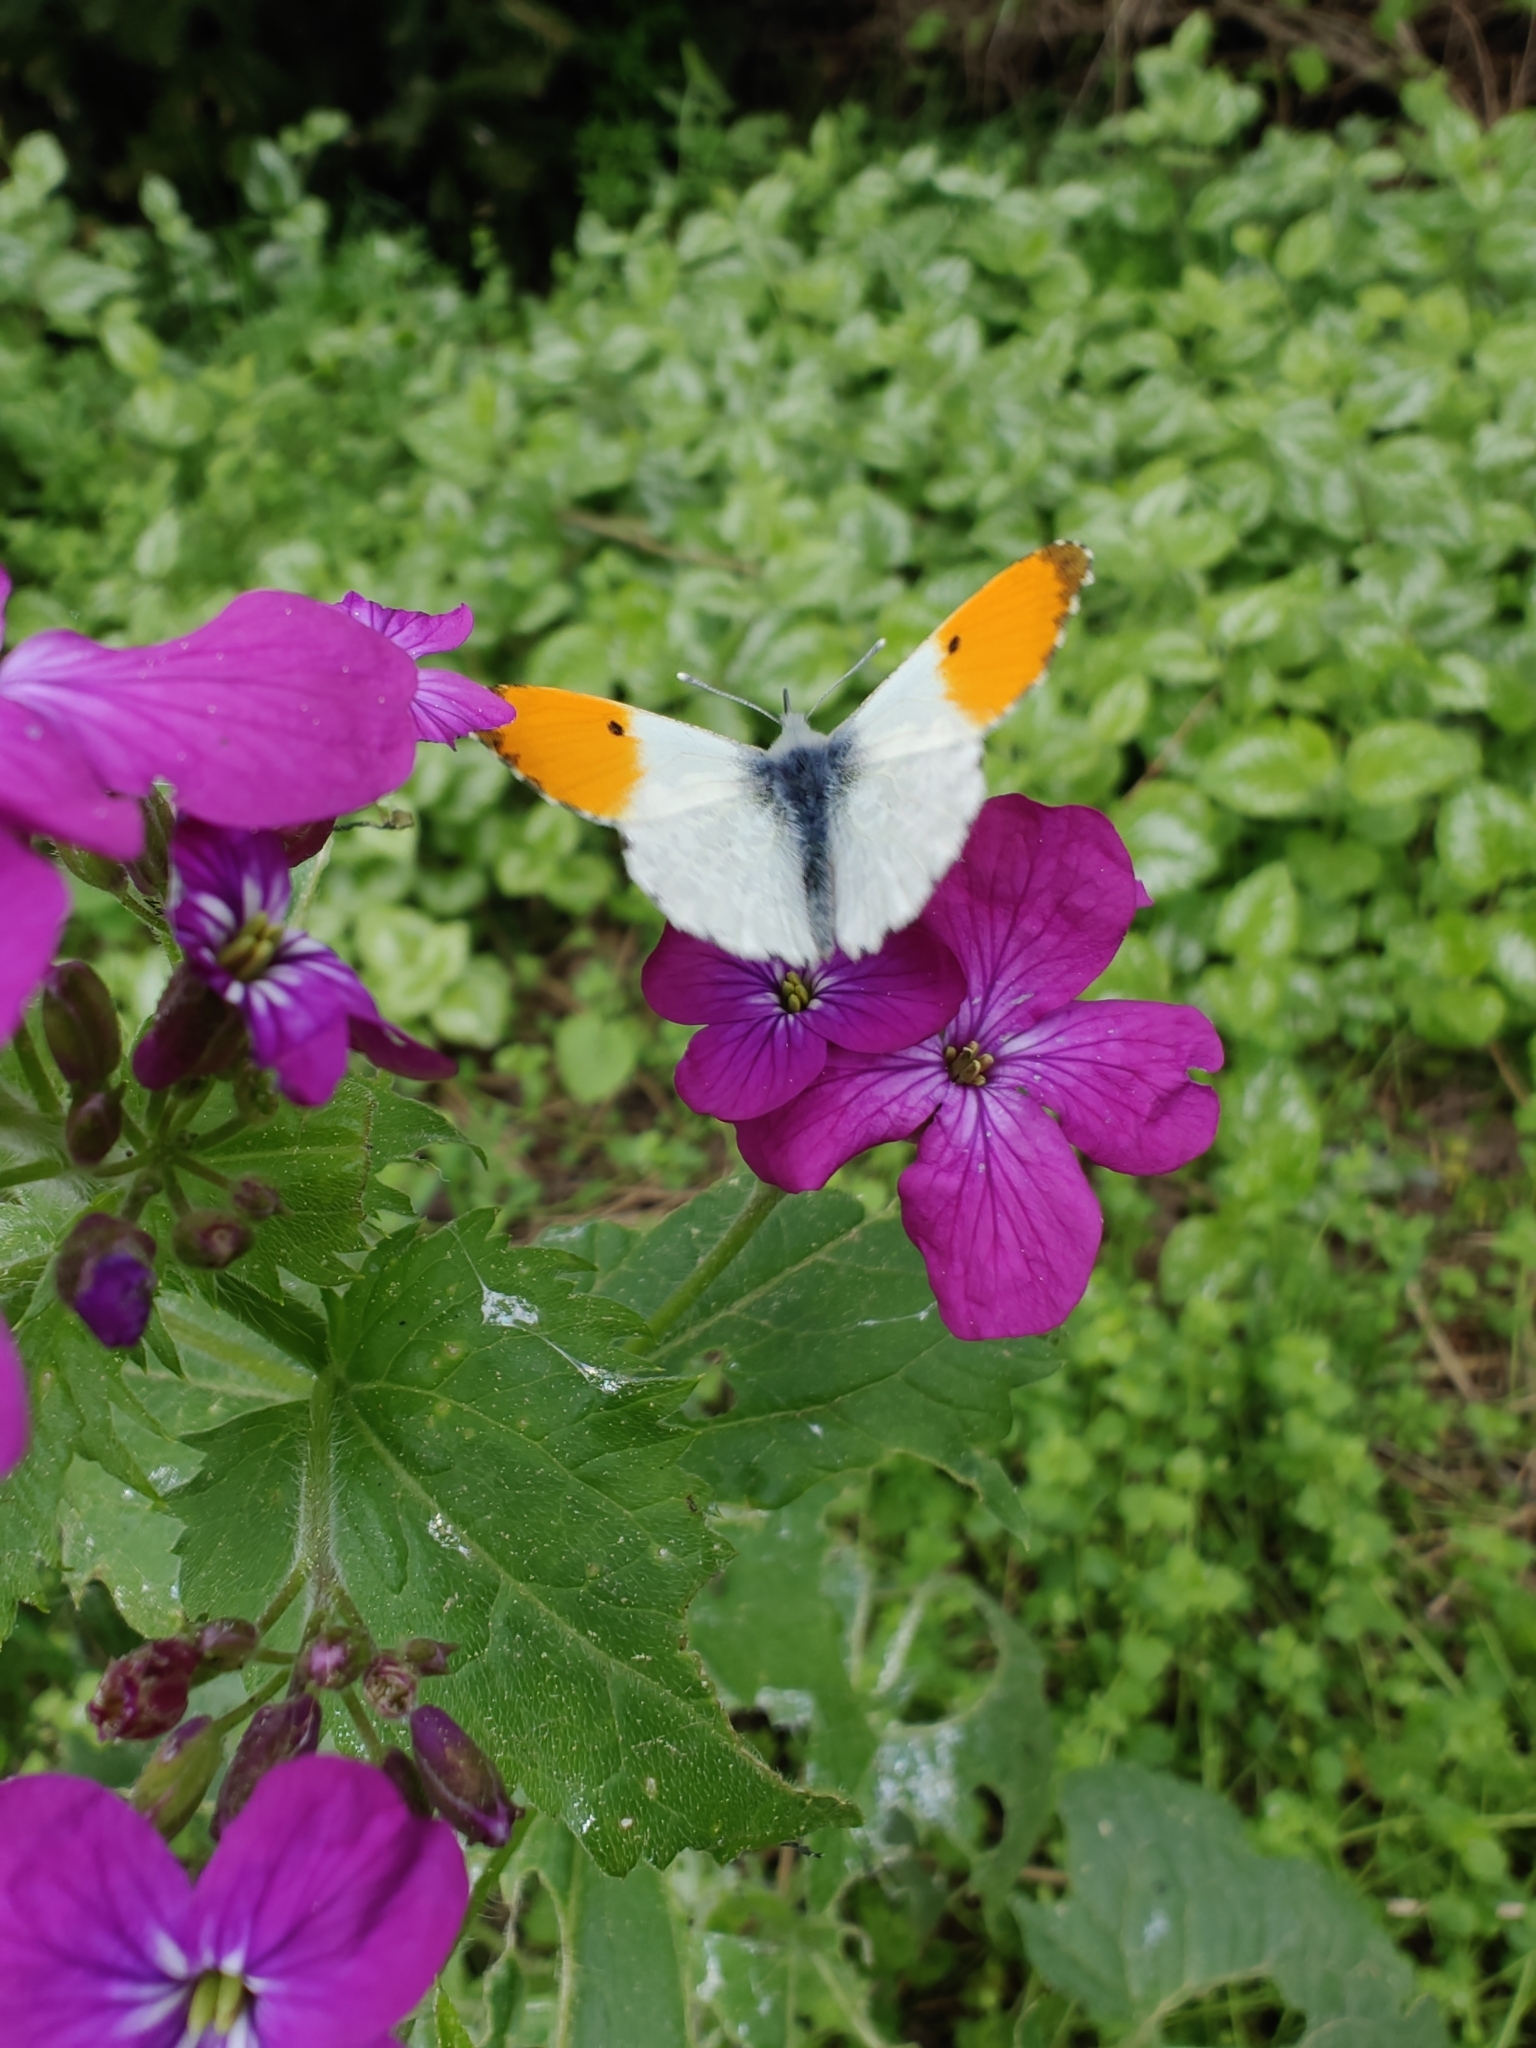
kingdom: Animalia
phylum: Arthropoda
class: Insecta
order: Lepidoptera
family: Pieridae
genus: Anthocharis
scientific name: Anthocharis cardamines
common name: Orange-tip
